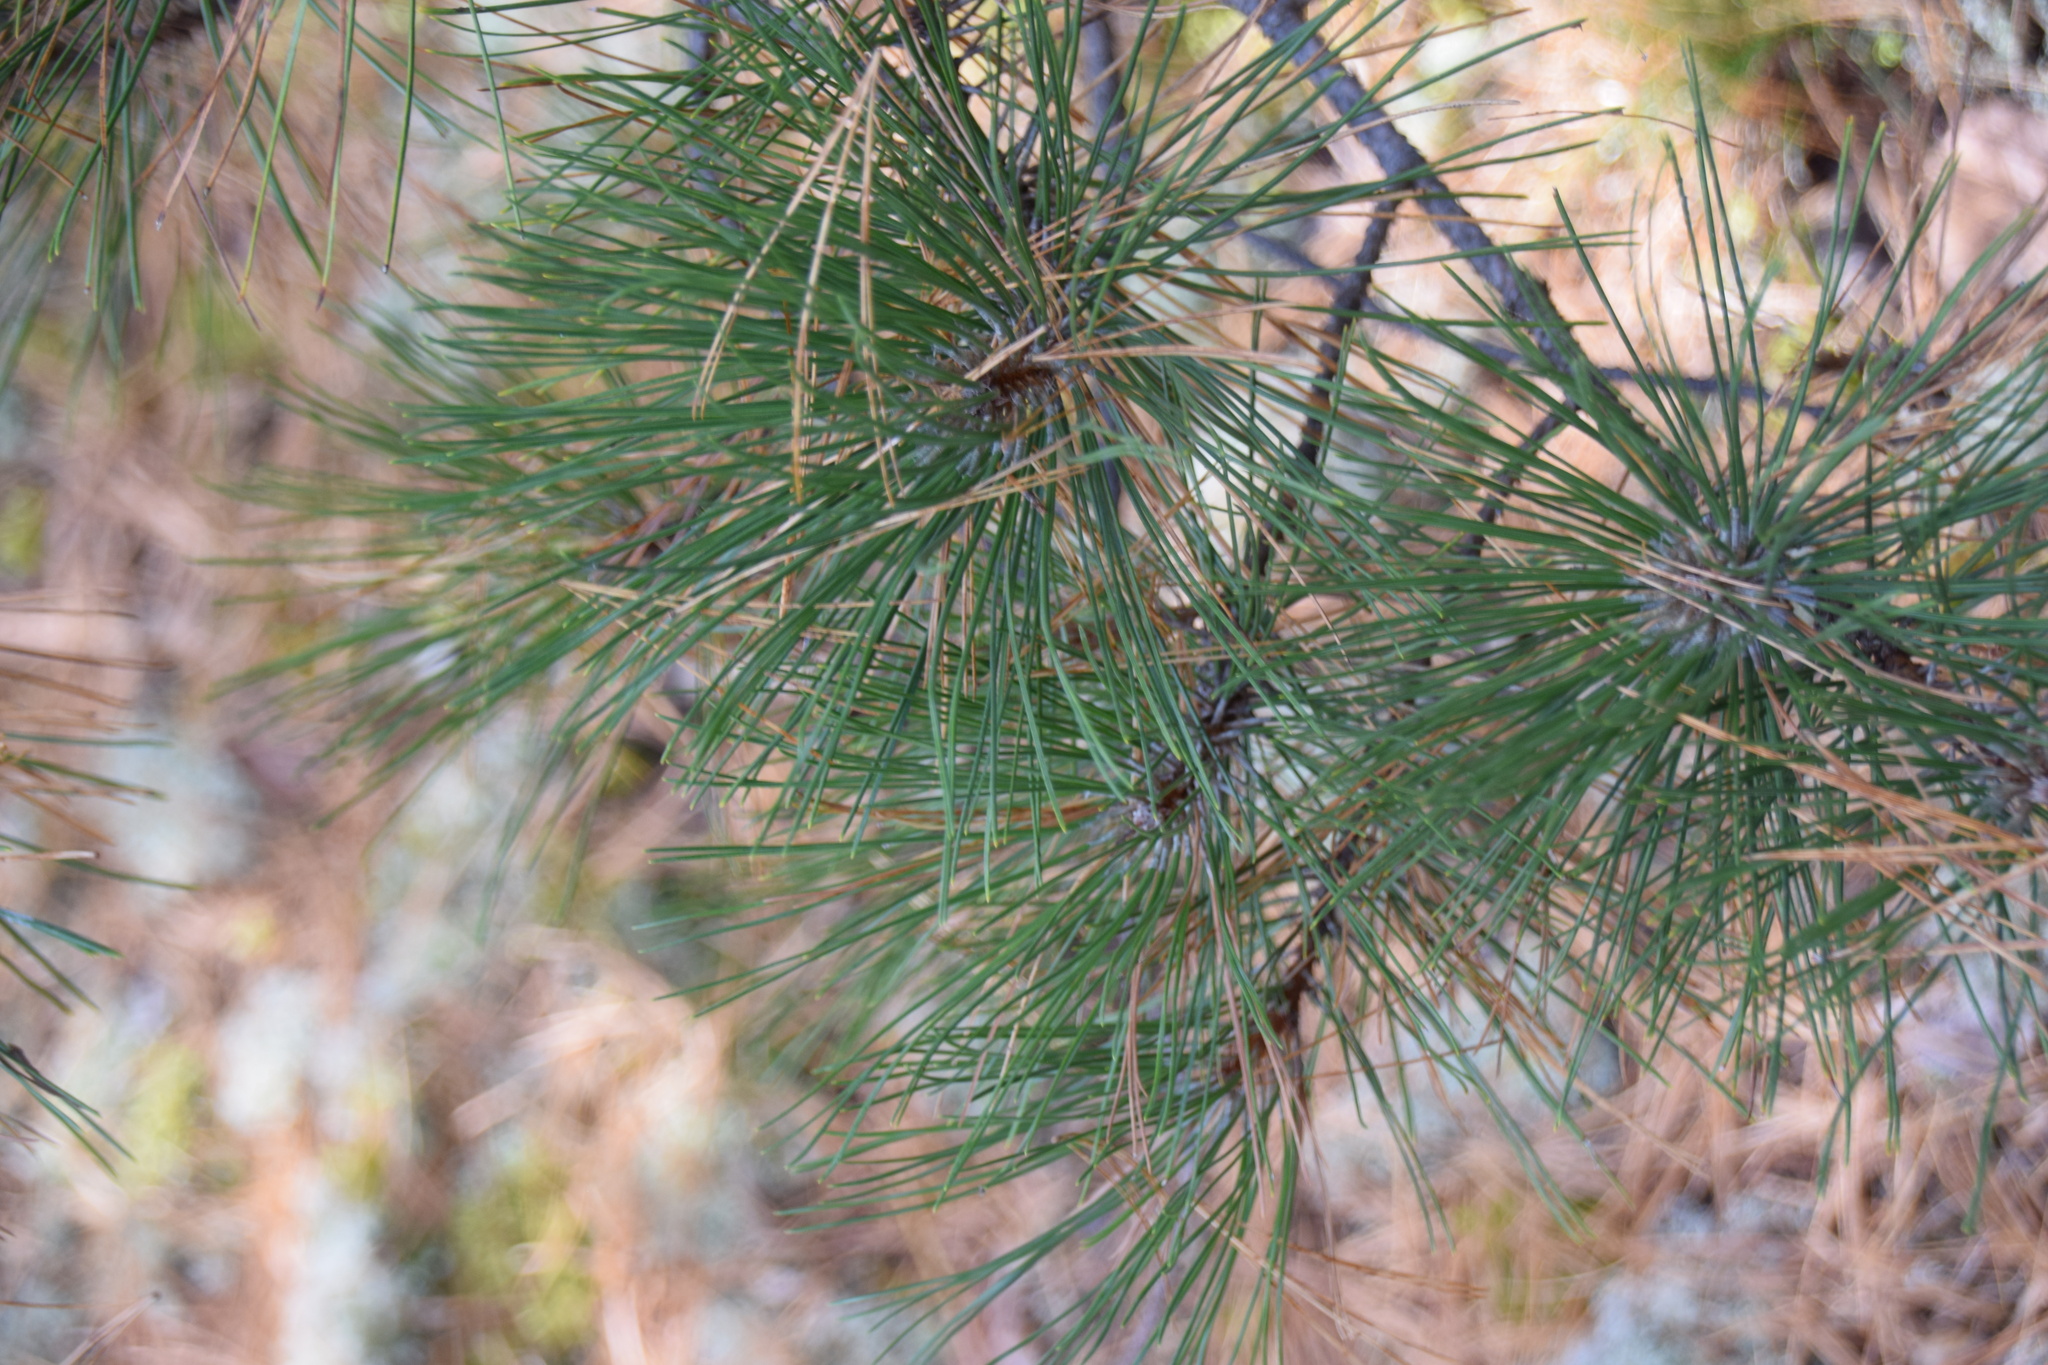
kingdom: Plantae
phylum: Tracheophyta
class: Pinopsida
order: Pinales
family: Pinaceae
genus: Pinus
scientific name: Pinus resinosa
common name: Norway pine
